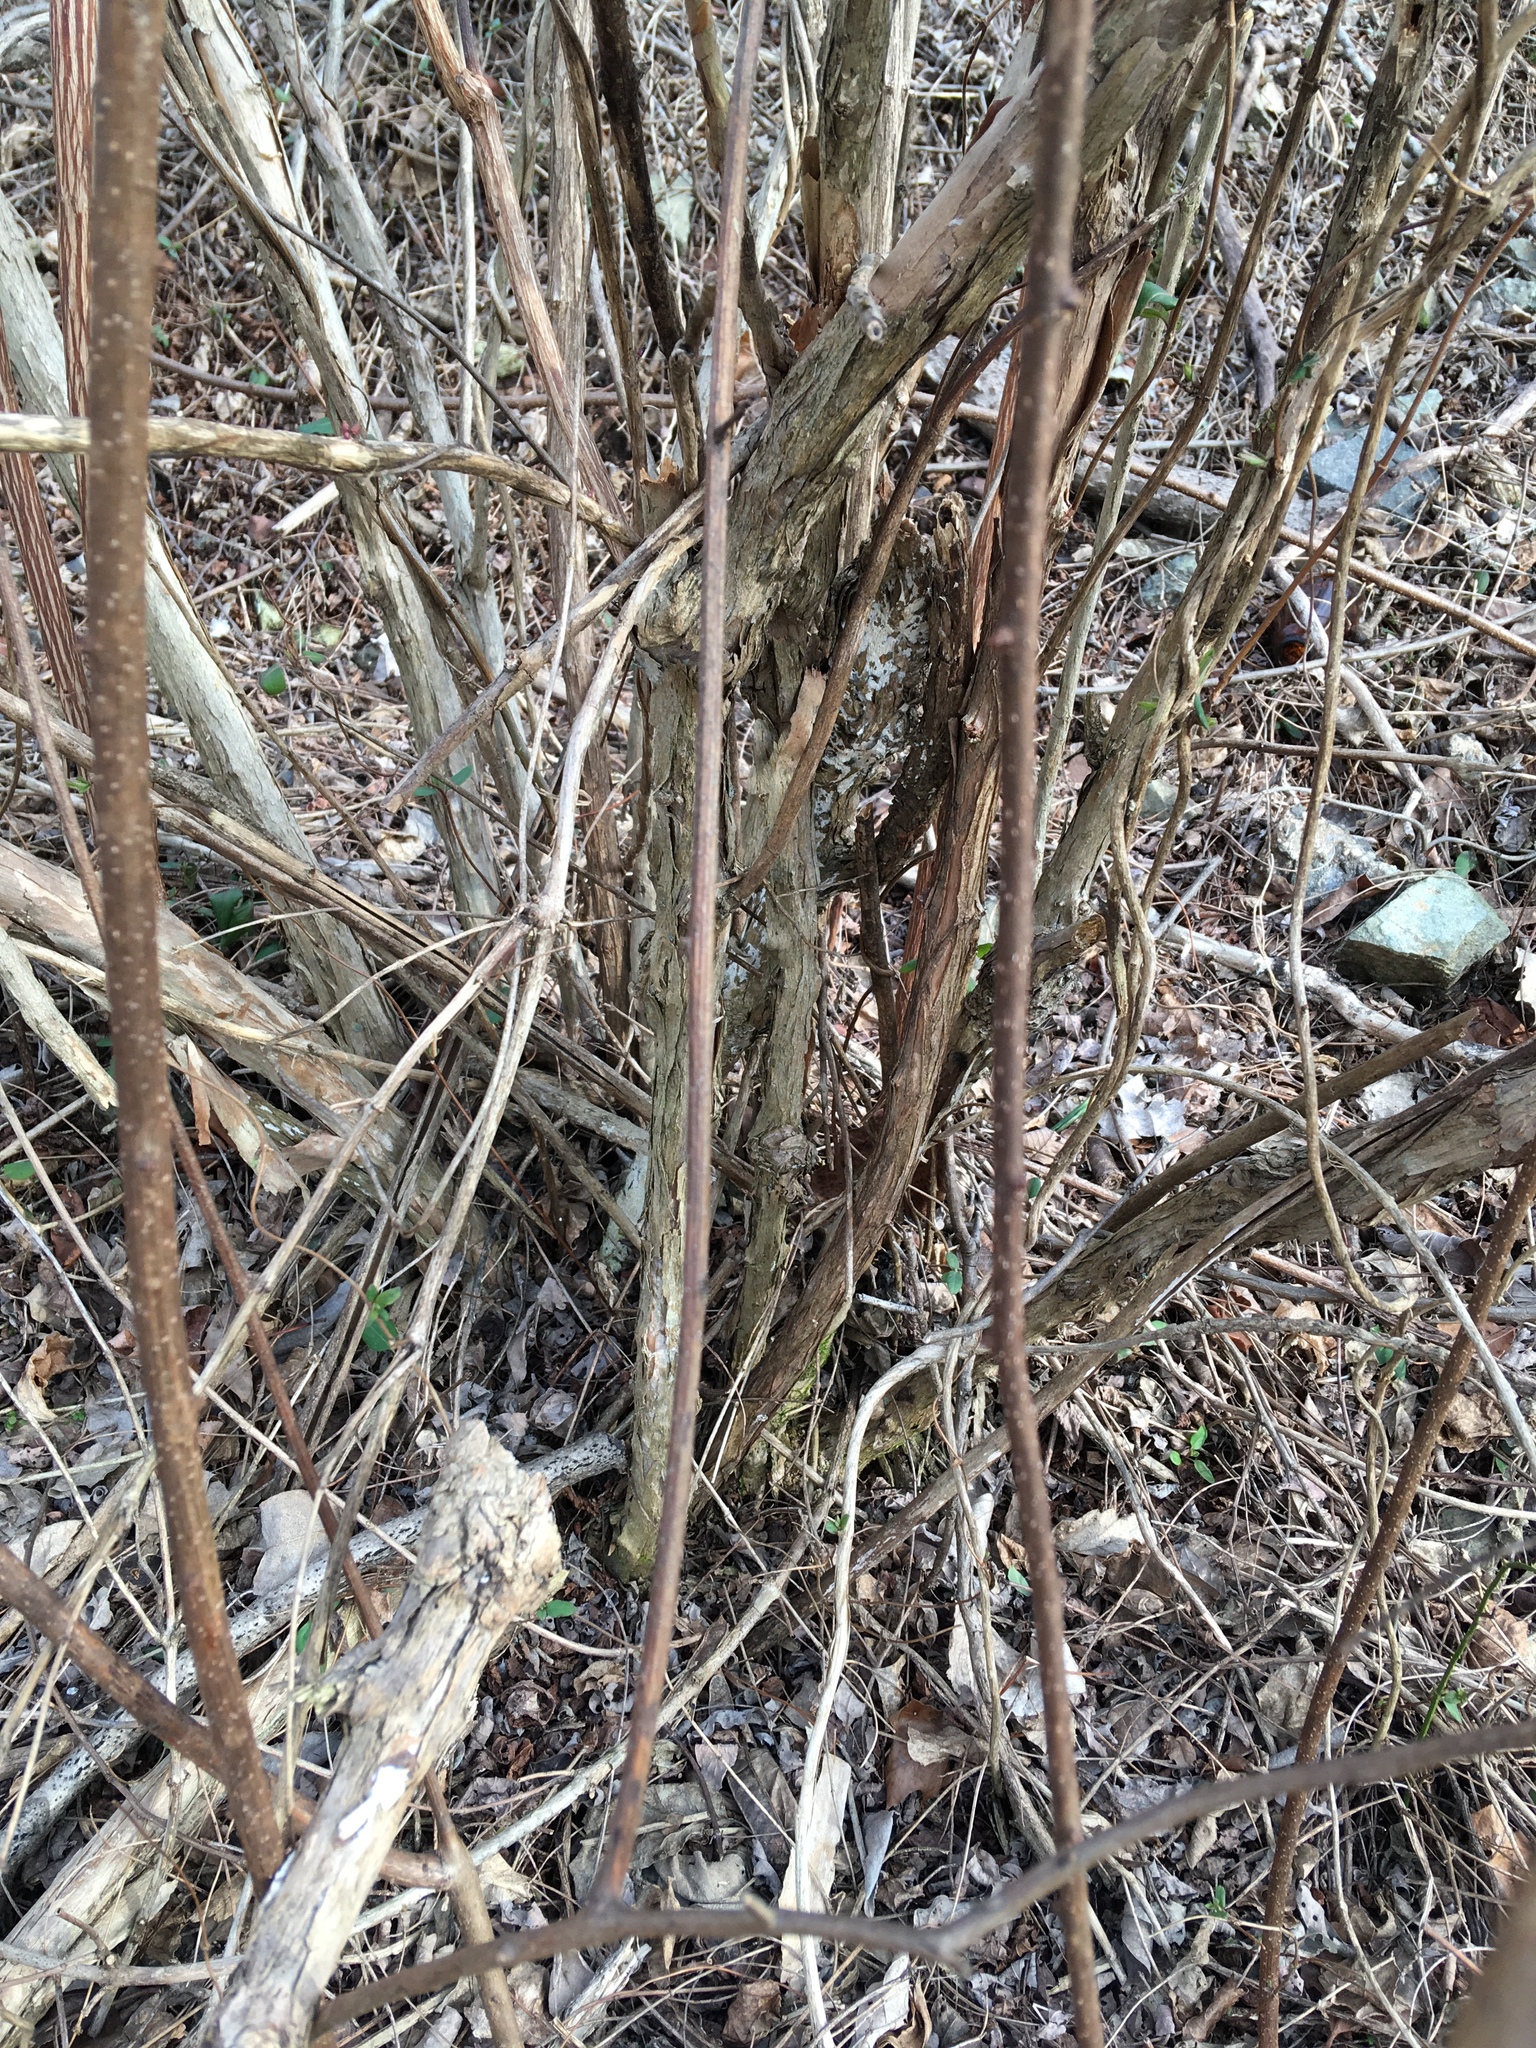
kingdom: Plantae
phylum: Tracheophyta
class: Magnoliopsida
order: Cornales
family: Hydrangeaceae
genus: Deutzia
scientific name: Deutzia scabra
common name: Deutzia
